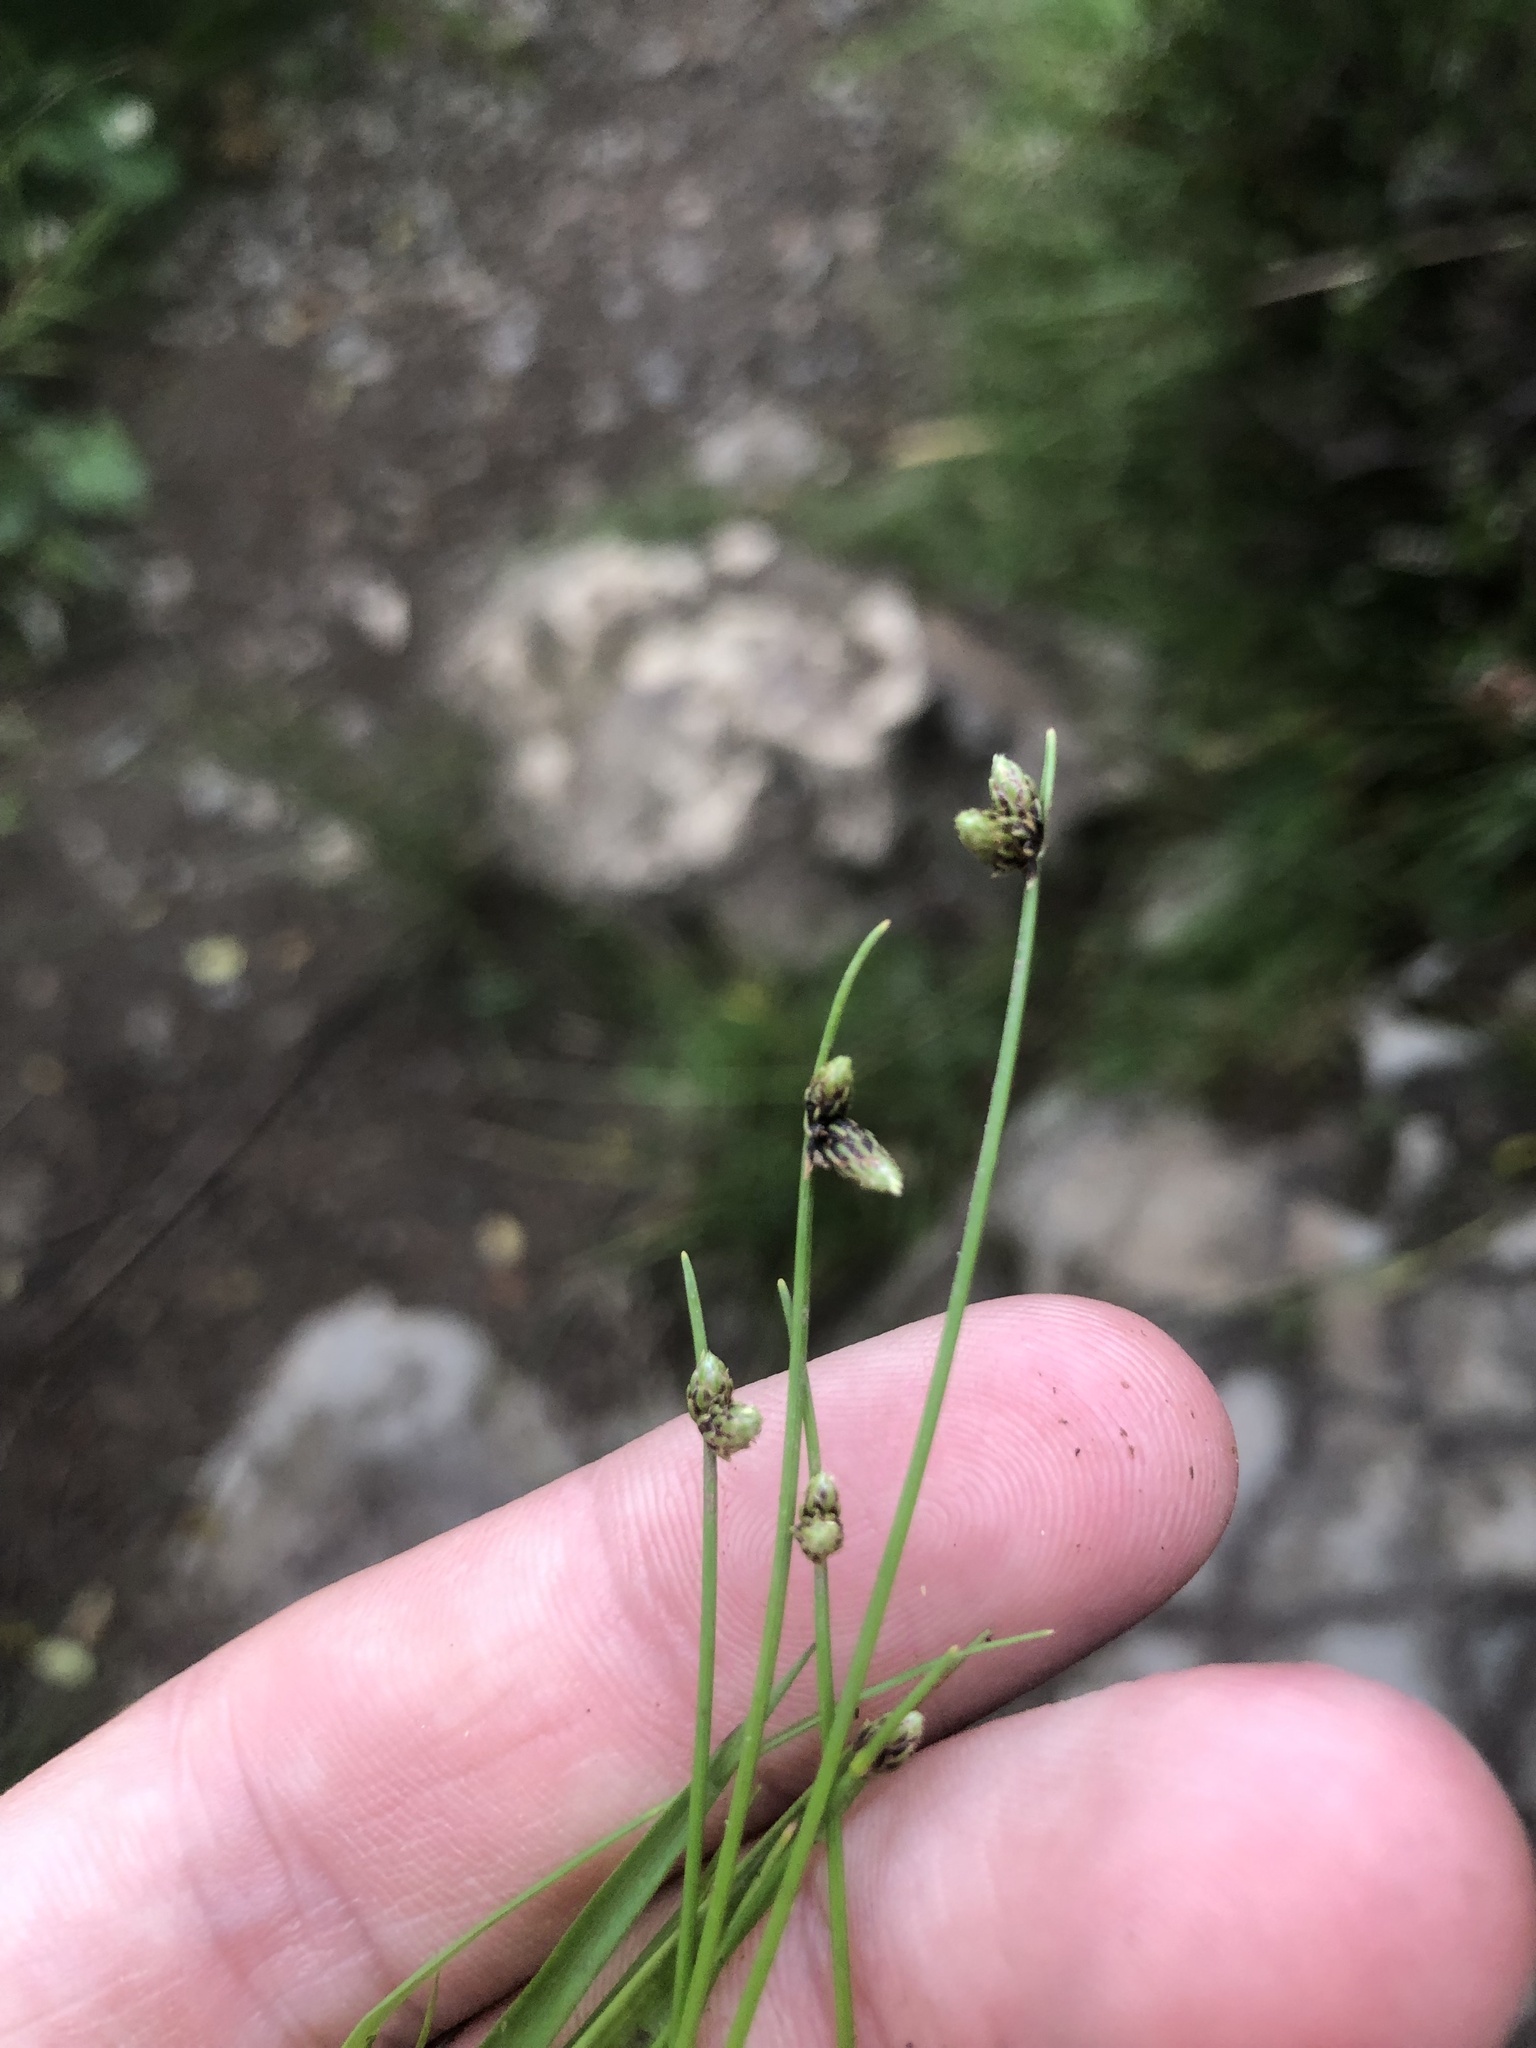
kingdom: Plantae
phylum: Tracheophyta
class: Liliopsida
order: Poales
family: Cyperaceae
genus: Isolepis
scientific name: Isolepis setacea
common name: Bristle club-rush
